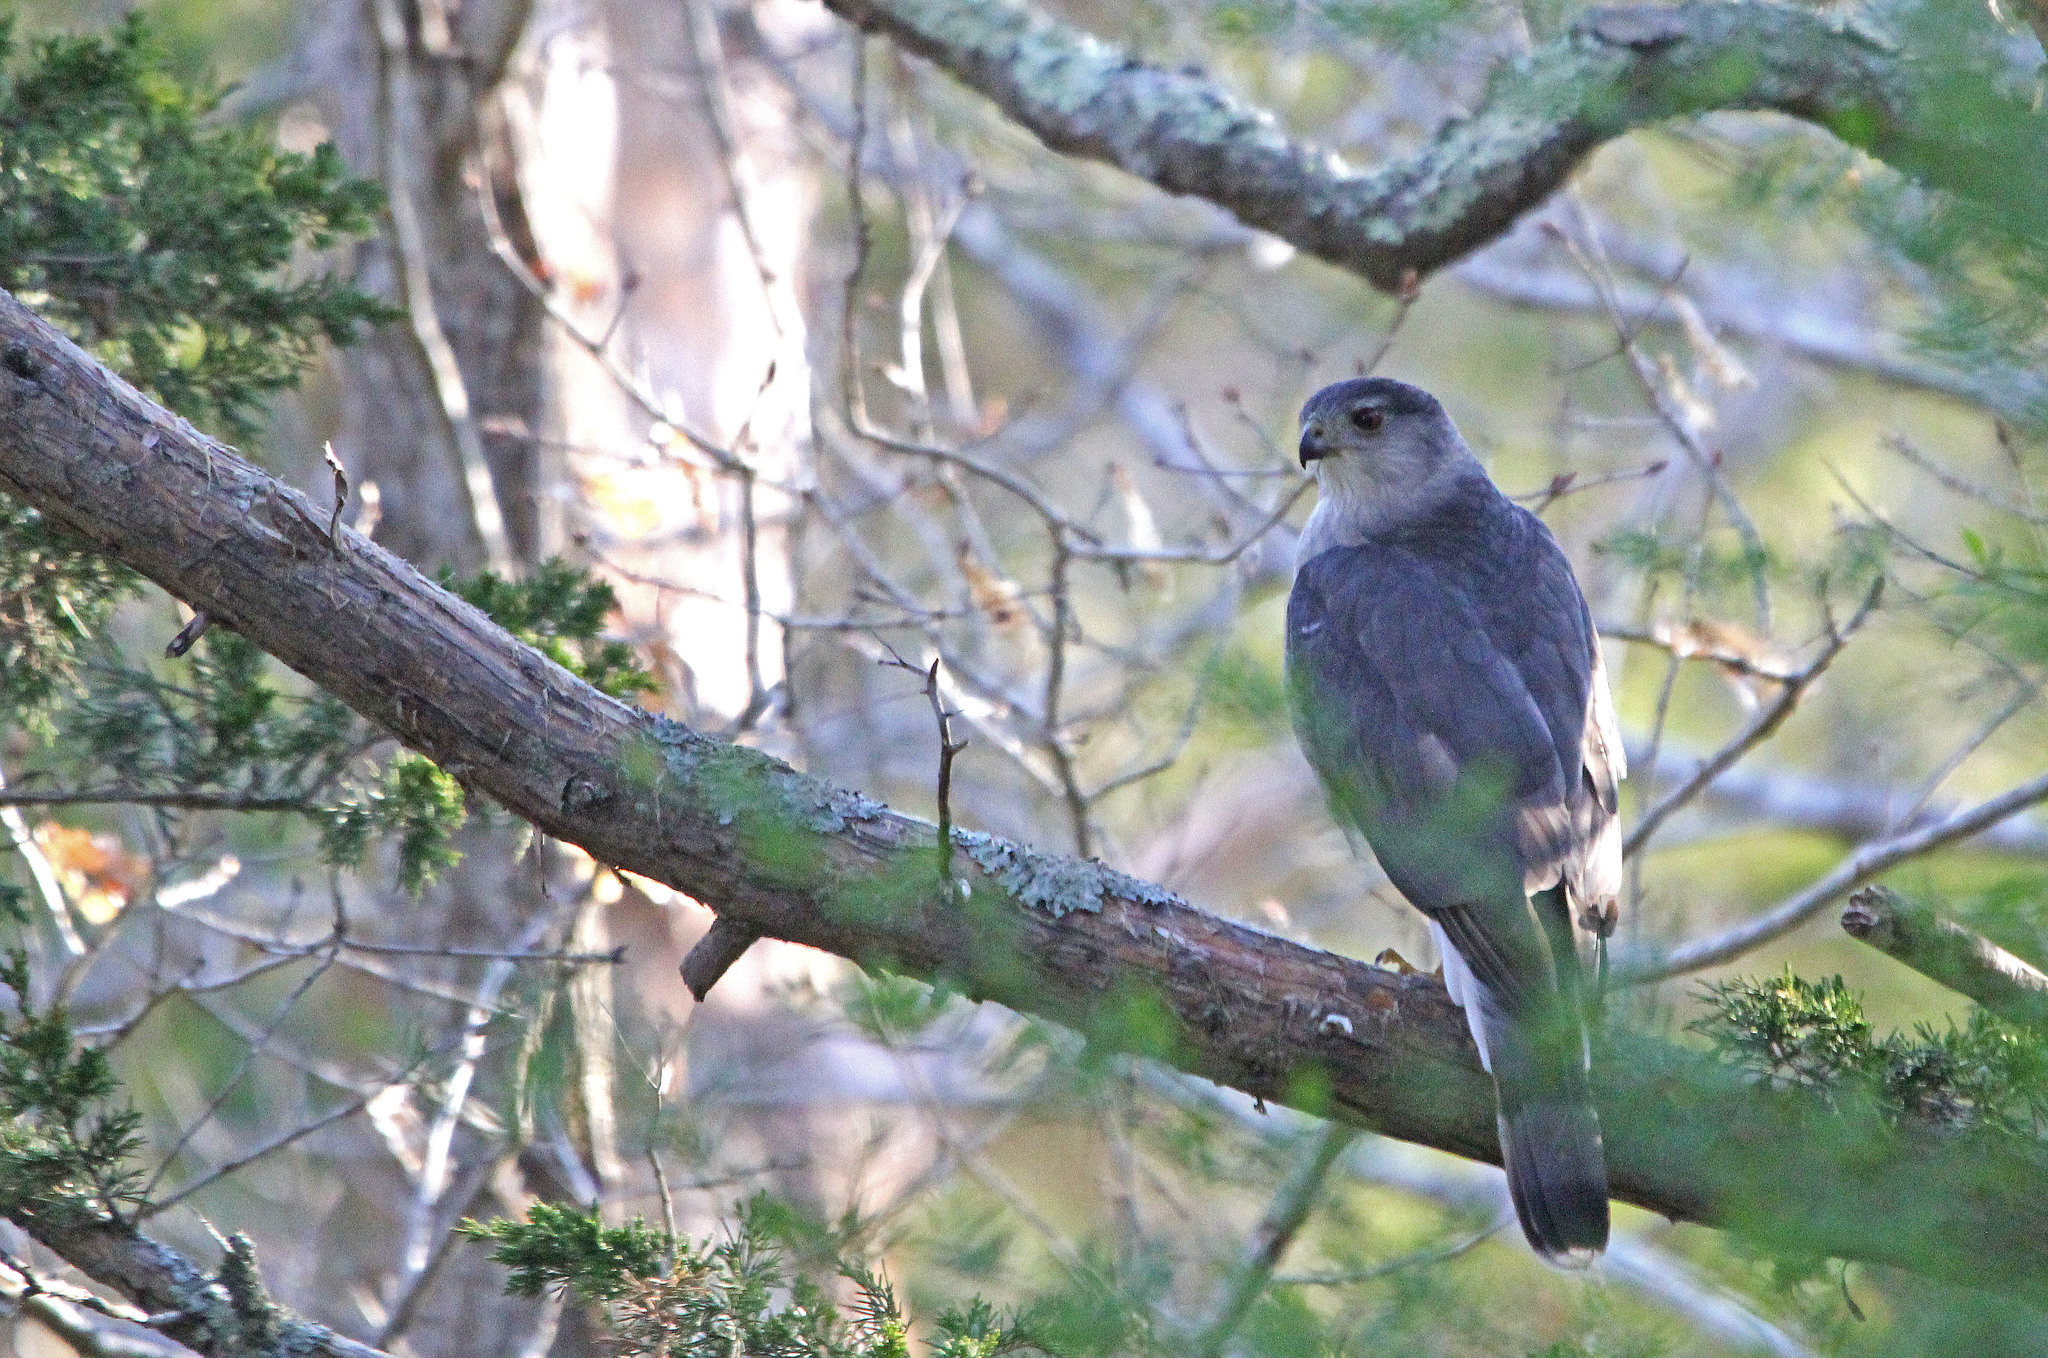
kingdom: Animalia
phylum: Chordata
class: Aves
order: Accipitriformes
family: Accipitridae
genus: Accipiter
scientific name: Accipiter cooperii
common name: Cooper's hawk
